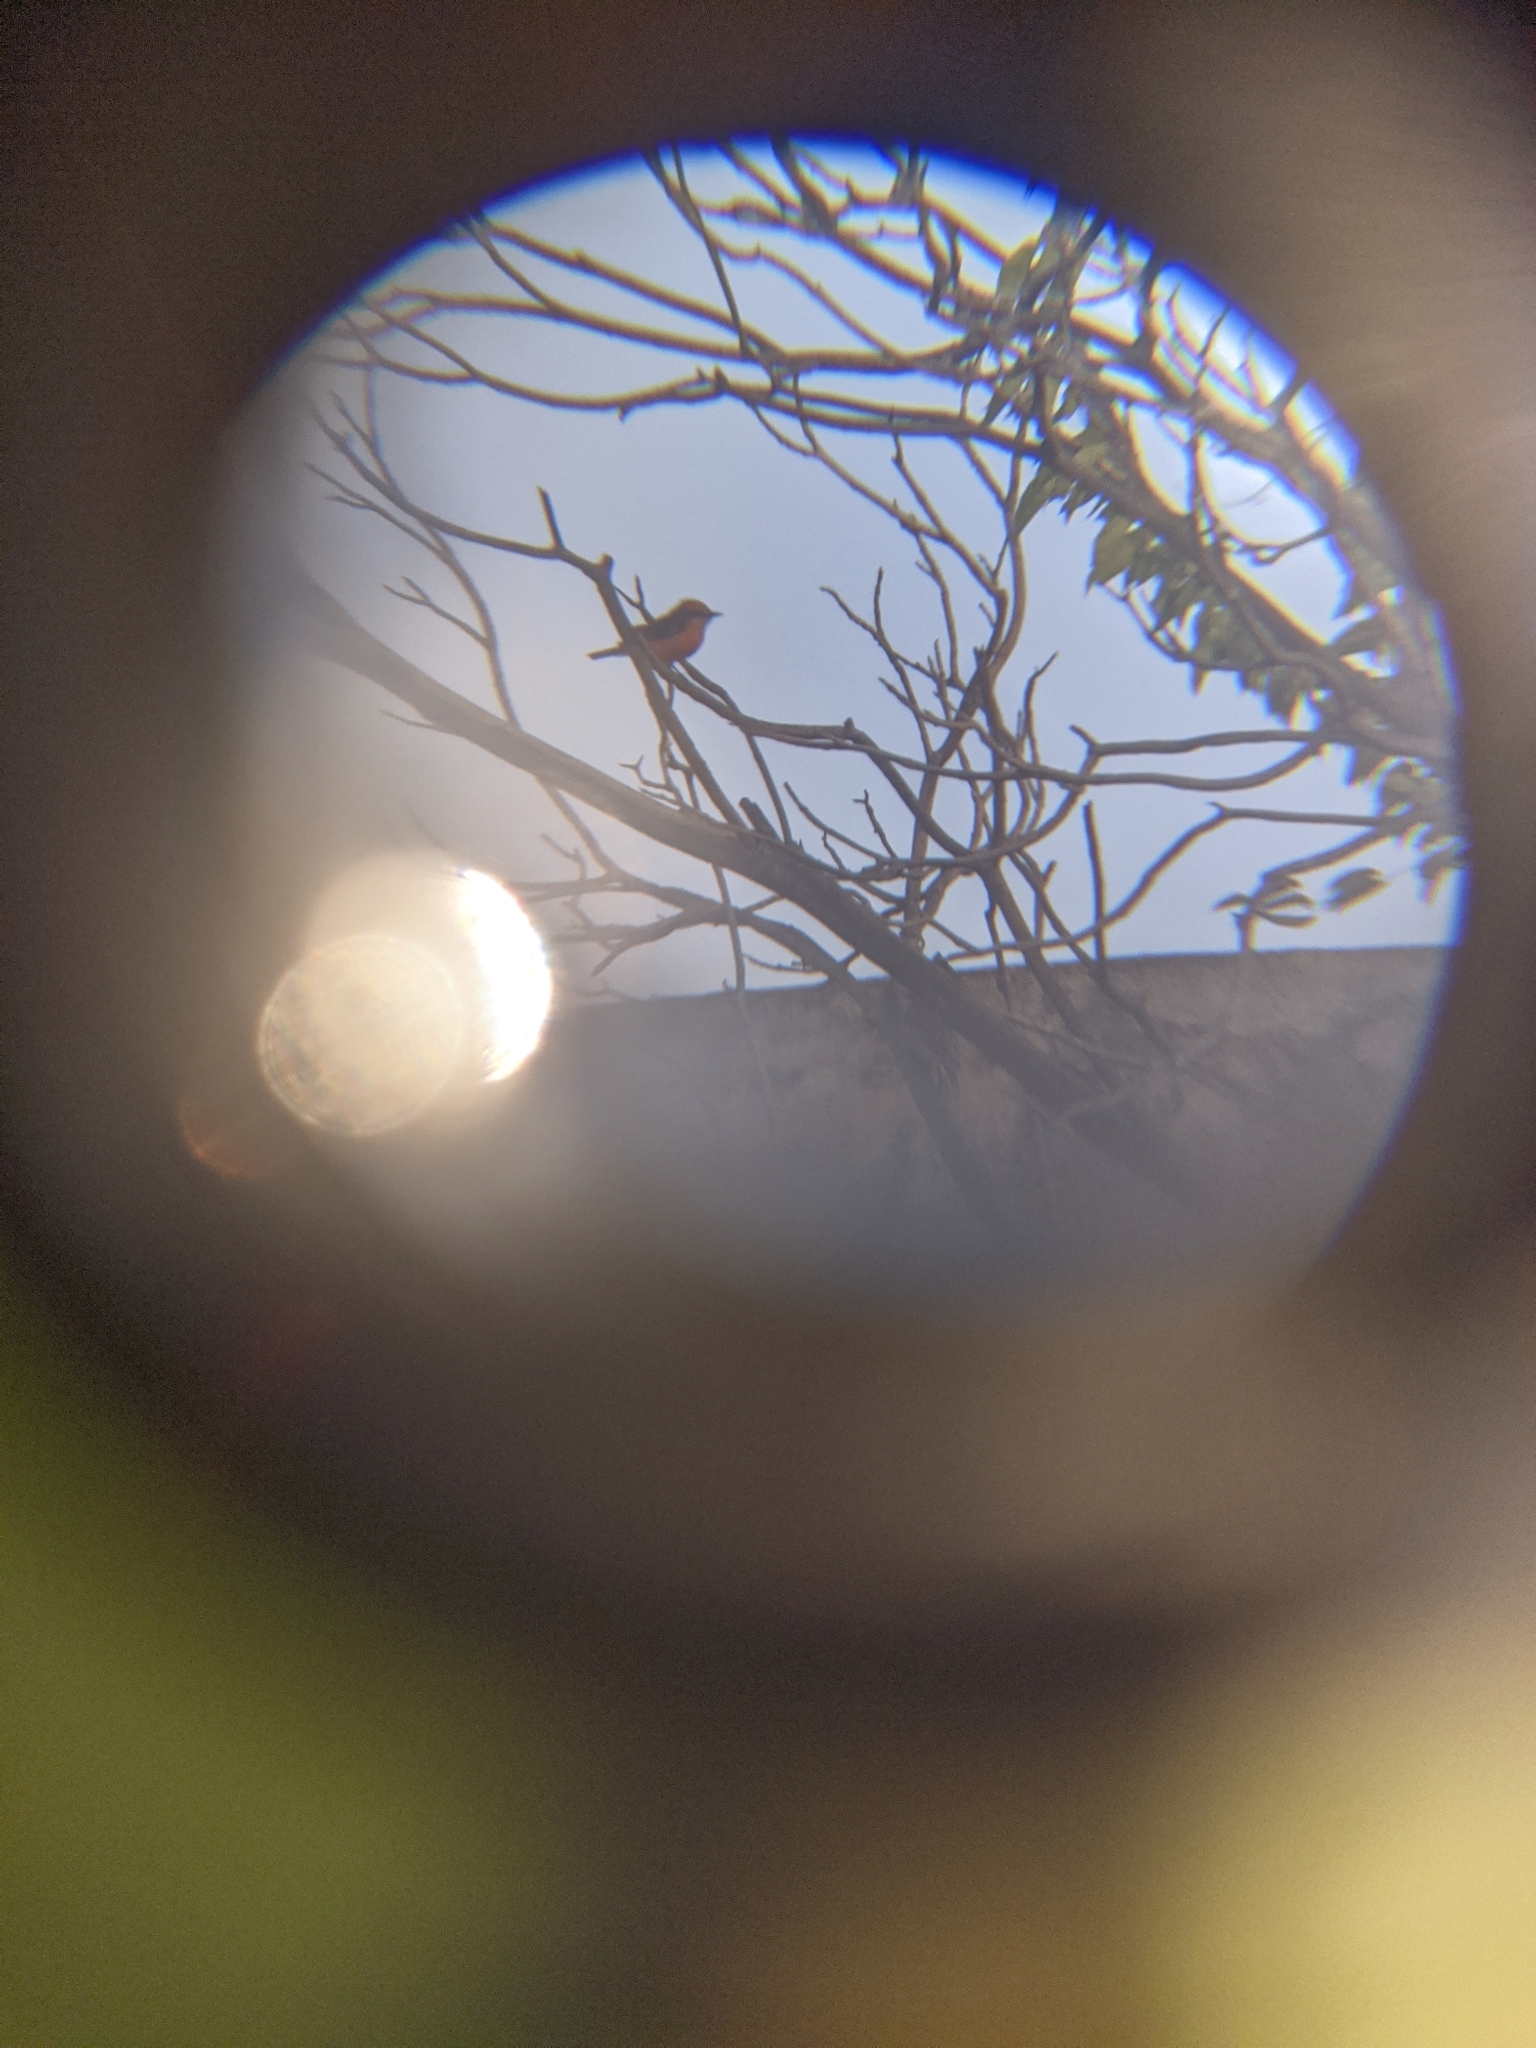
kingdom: Animalia
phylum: Chordata
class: Aves
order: Passeriformes
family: Tyrannidae
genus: Pyrocephalus
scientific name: Pyrocephalus rubinus
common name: Vermilion flycatcher
